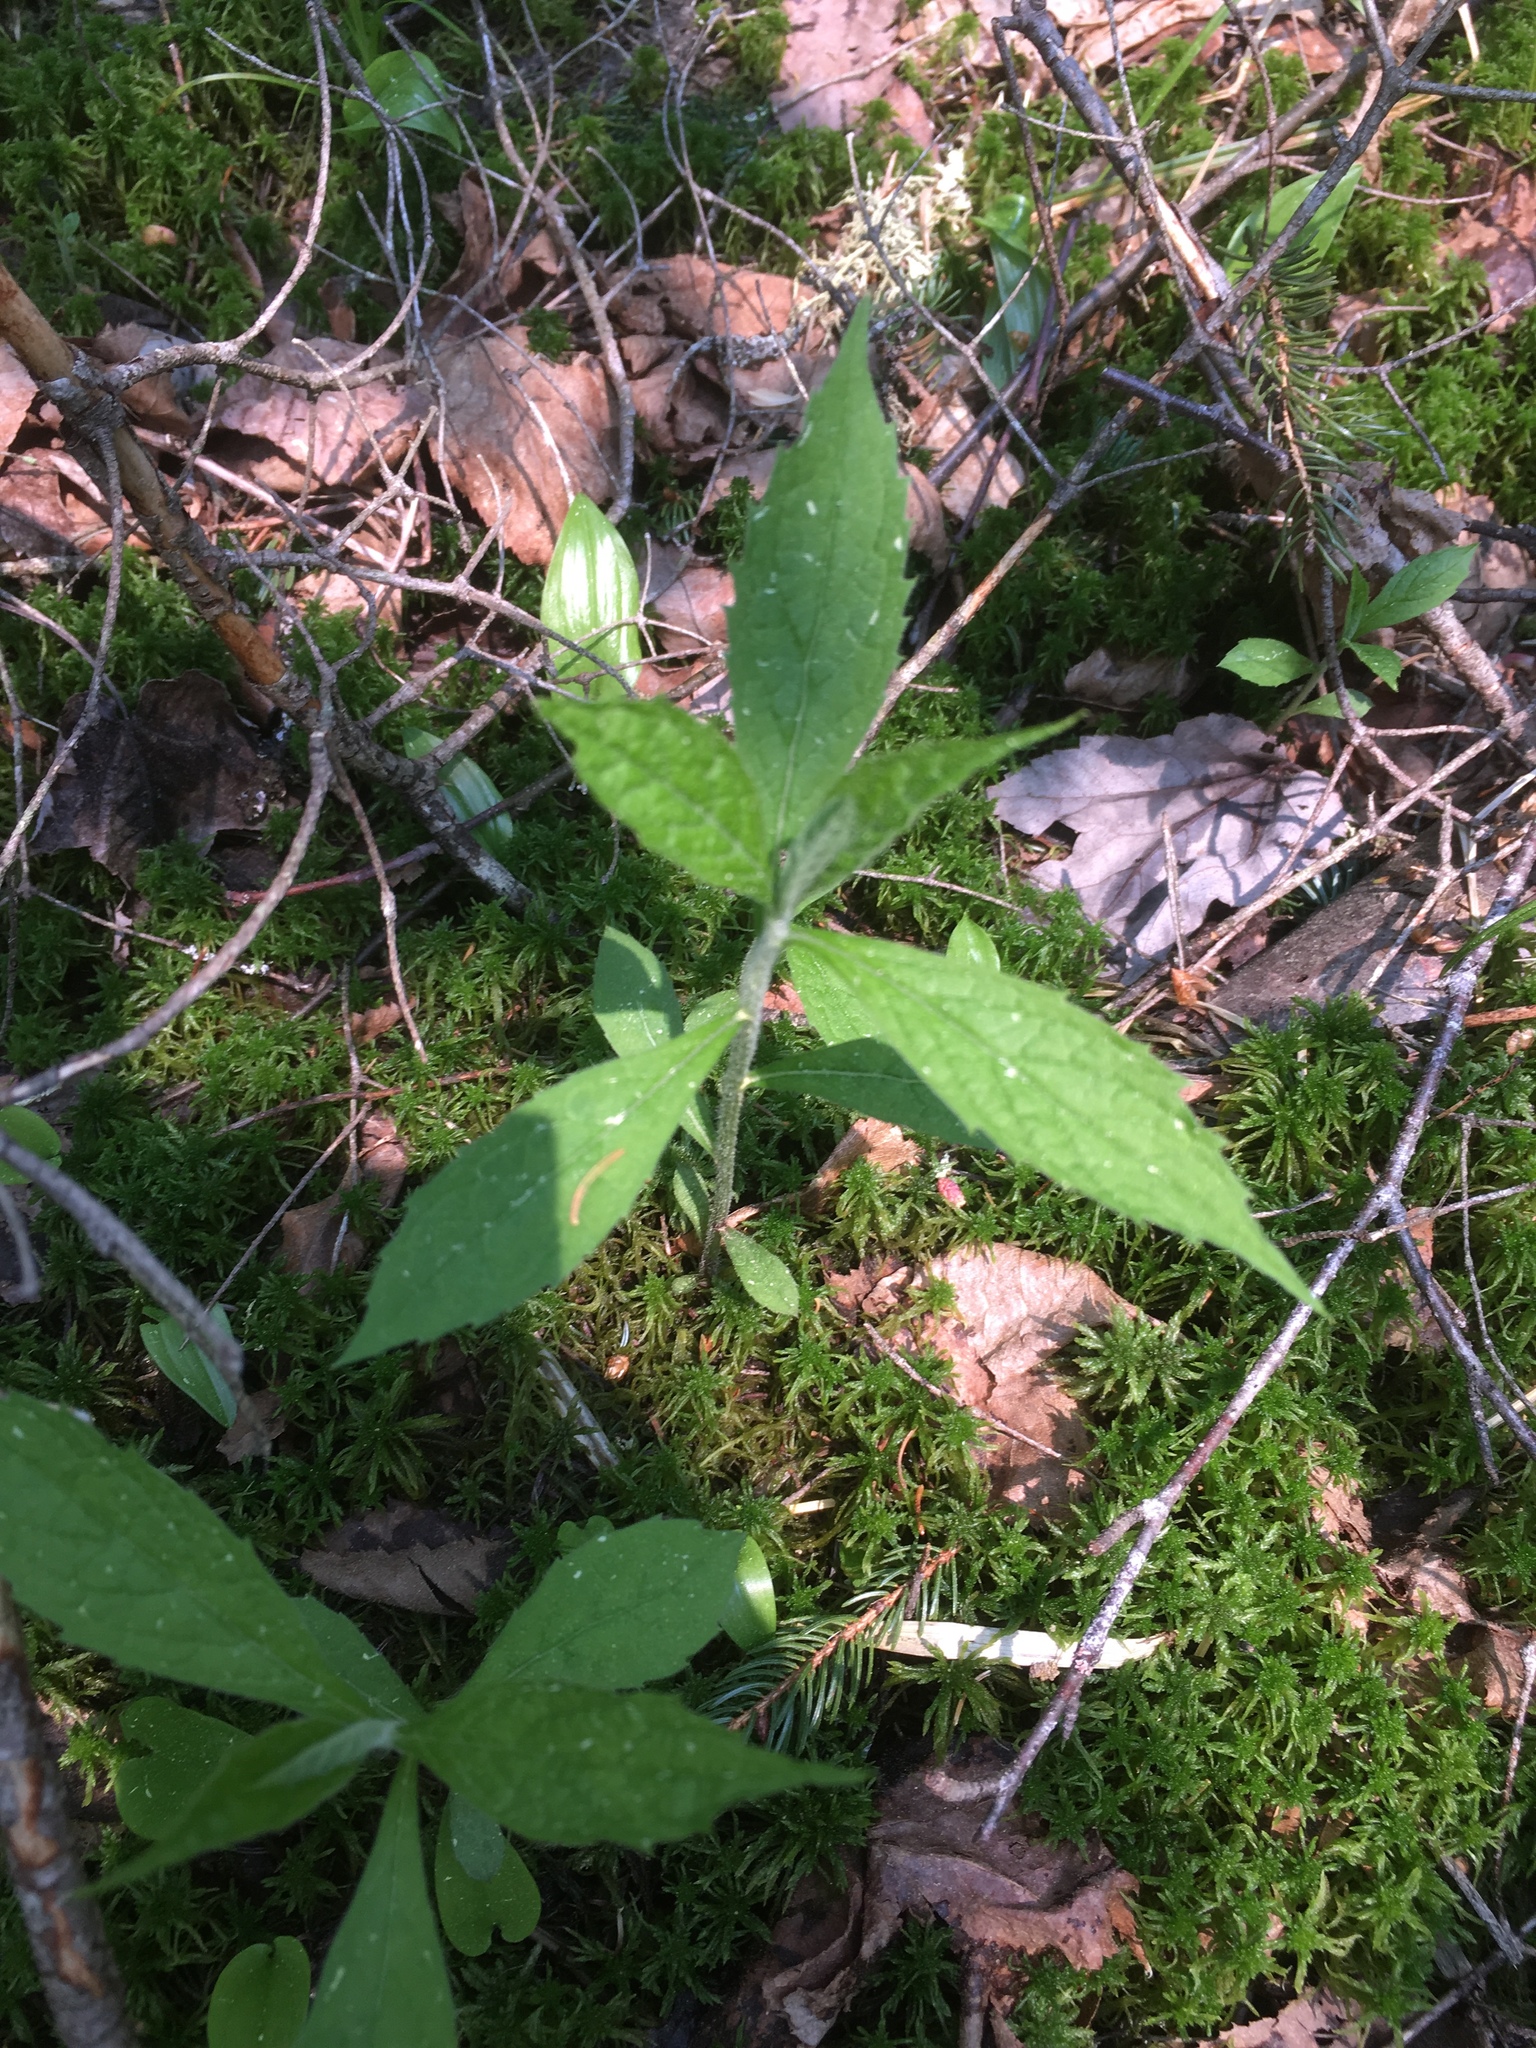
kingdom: Plantae
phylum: Tracheophyta
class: Magnoliopsida
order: Asterales
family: Asteraceae
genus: Solidago
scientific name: Solidago rugosa
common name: Rough-stemmed goldenrod
